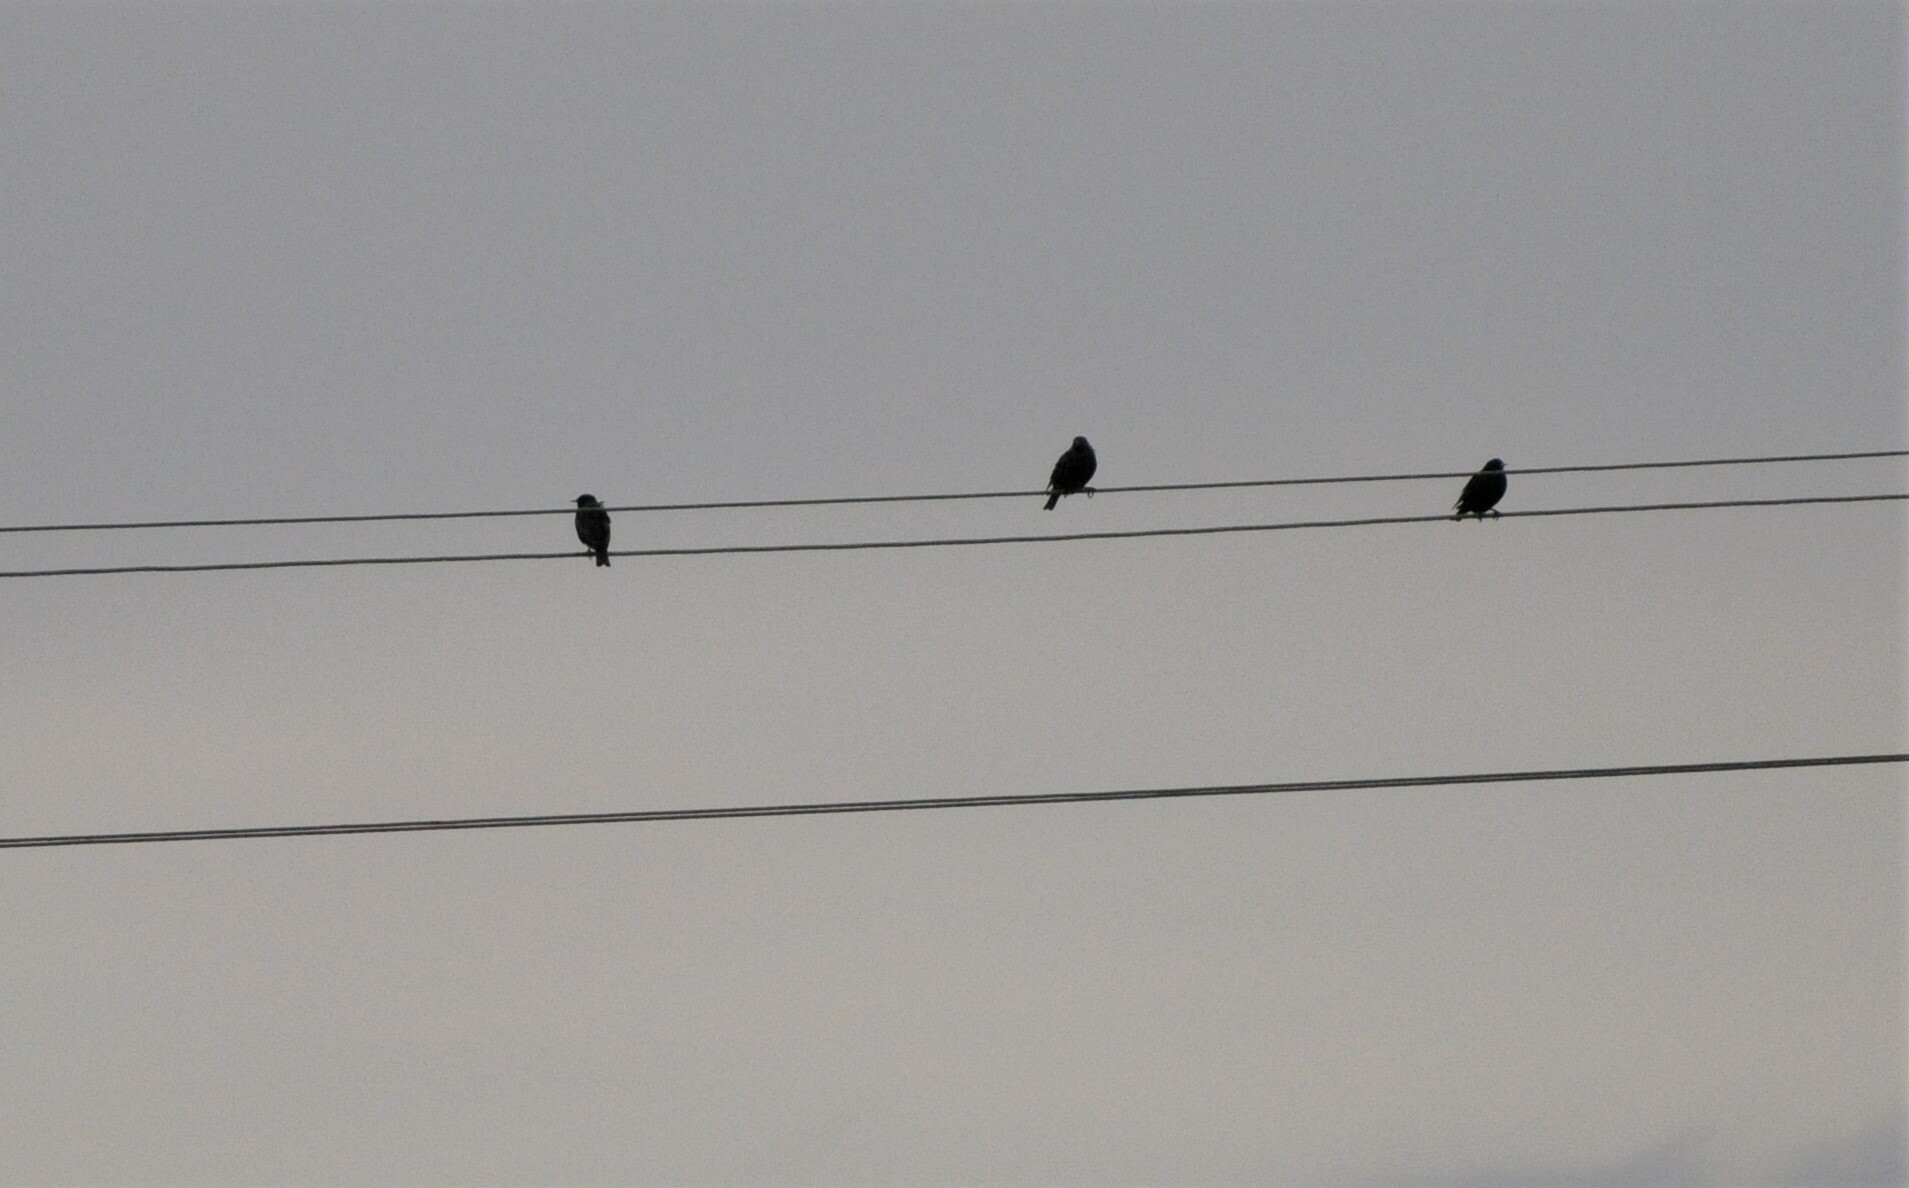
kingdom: Animalia
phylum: Chordata
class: Aves
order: Passeriformes
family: Sturnidae
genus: Sturnus
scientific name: Sturnus vulgaris
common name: Common starling
